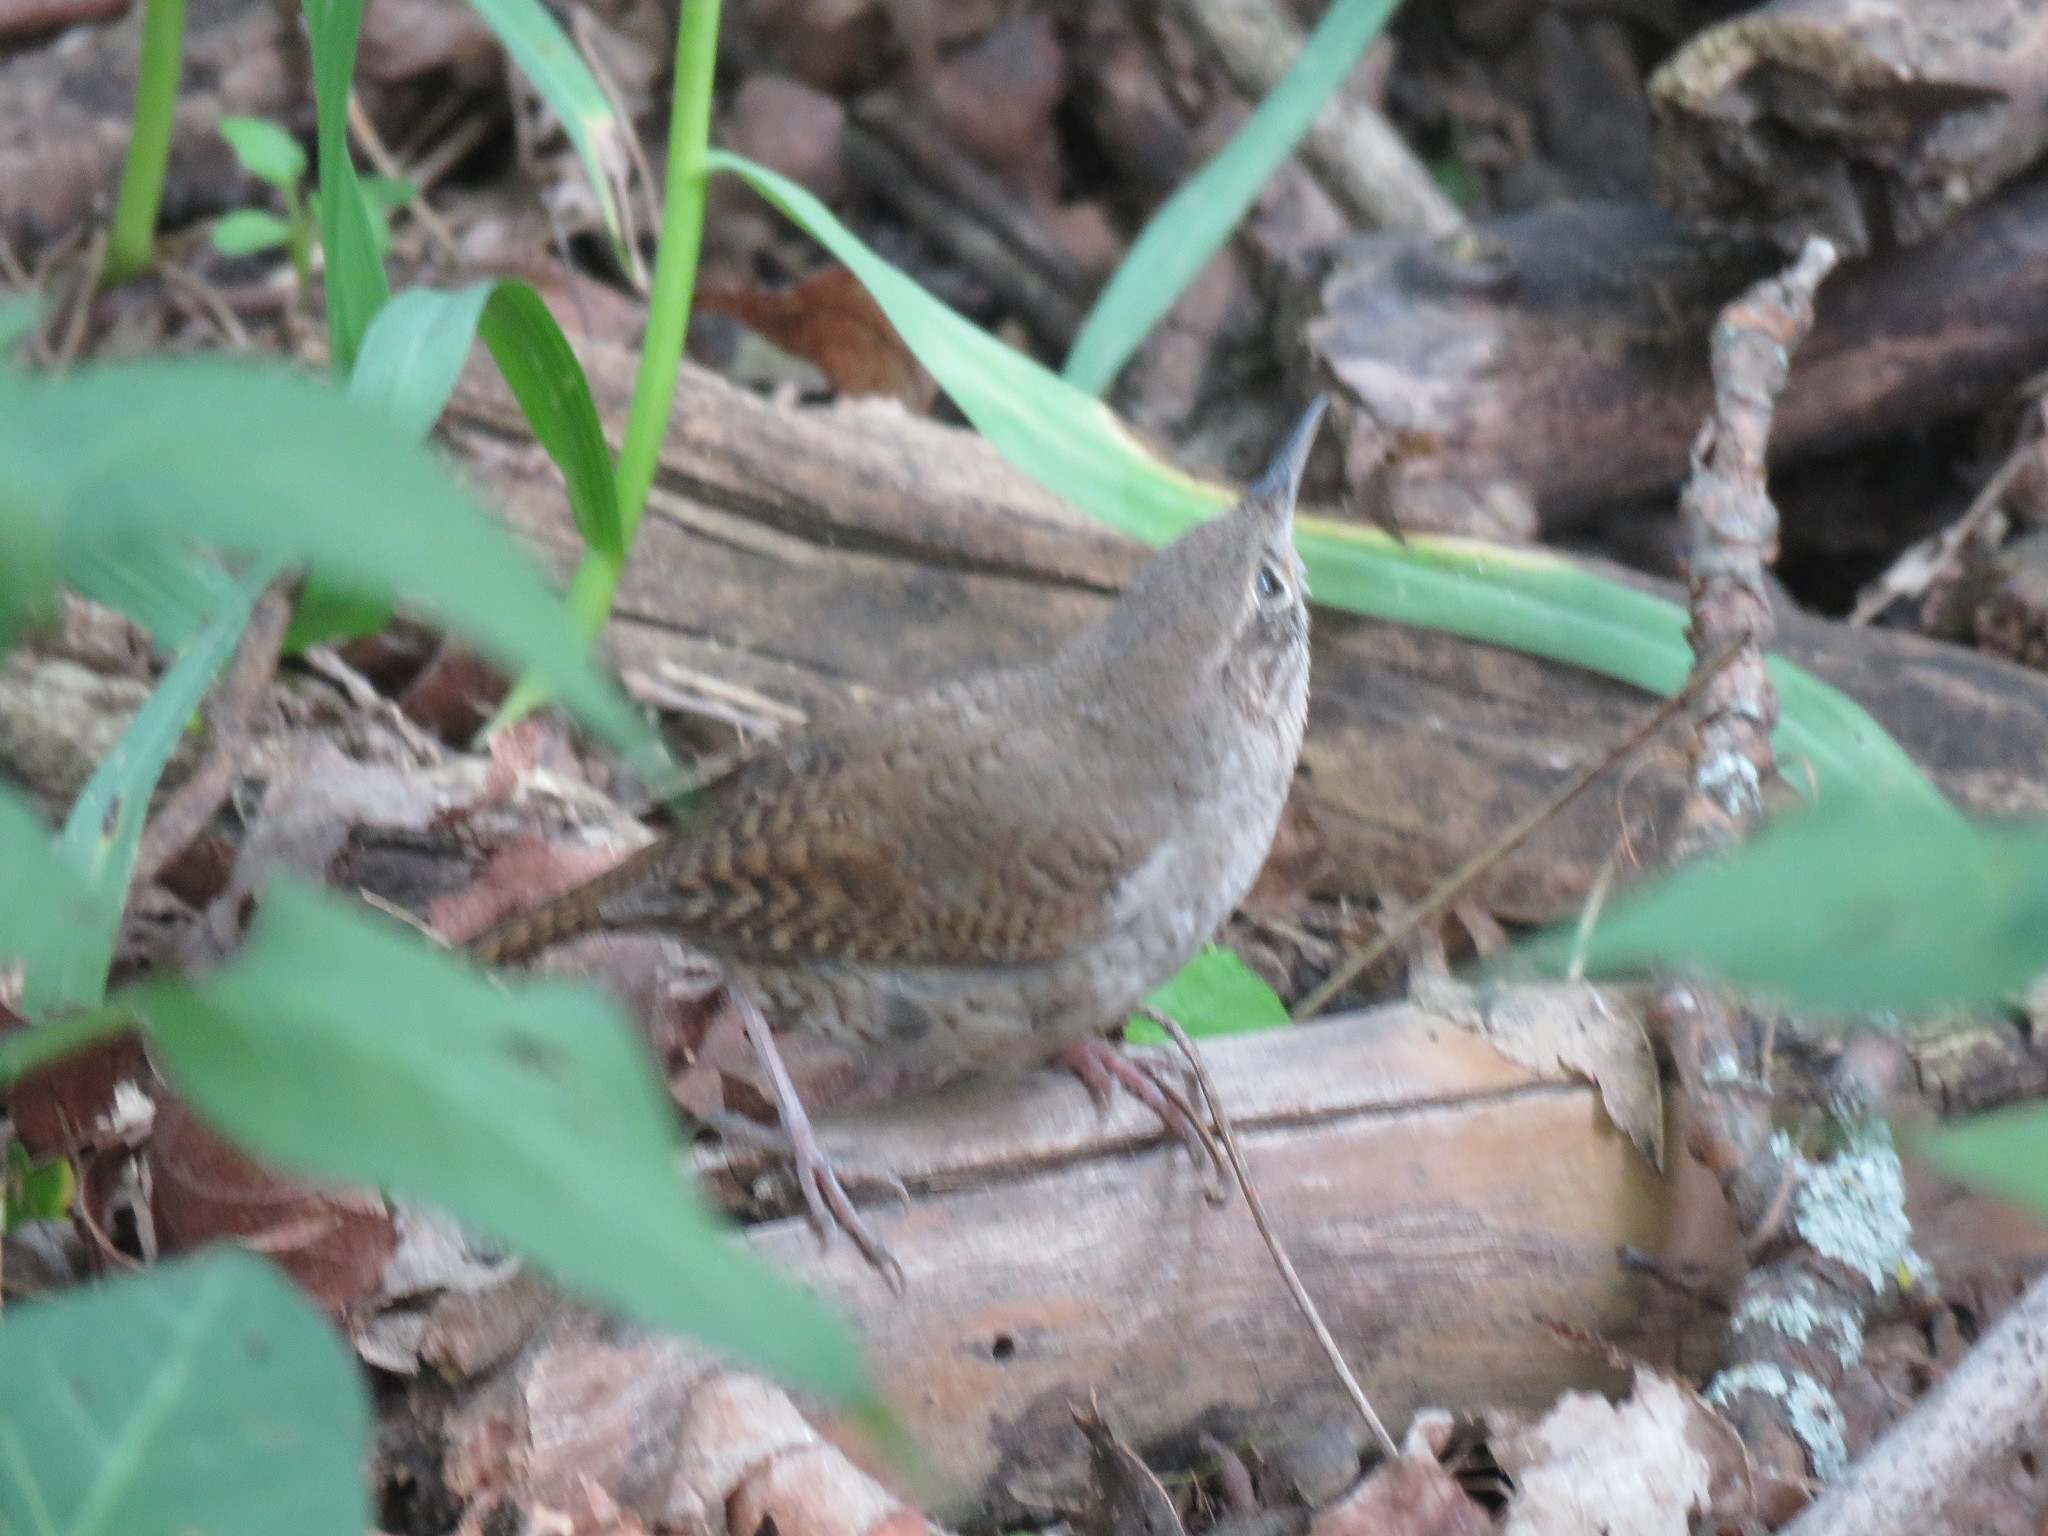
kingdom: Animalia
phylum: Chordata
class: Aves
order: Passeriformes
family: Troglodytidae
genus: Troglodytes
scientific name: Troglodytes aedon
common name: House wren
